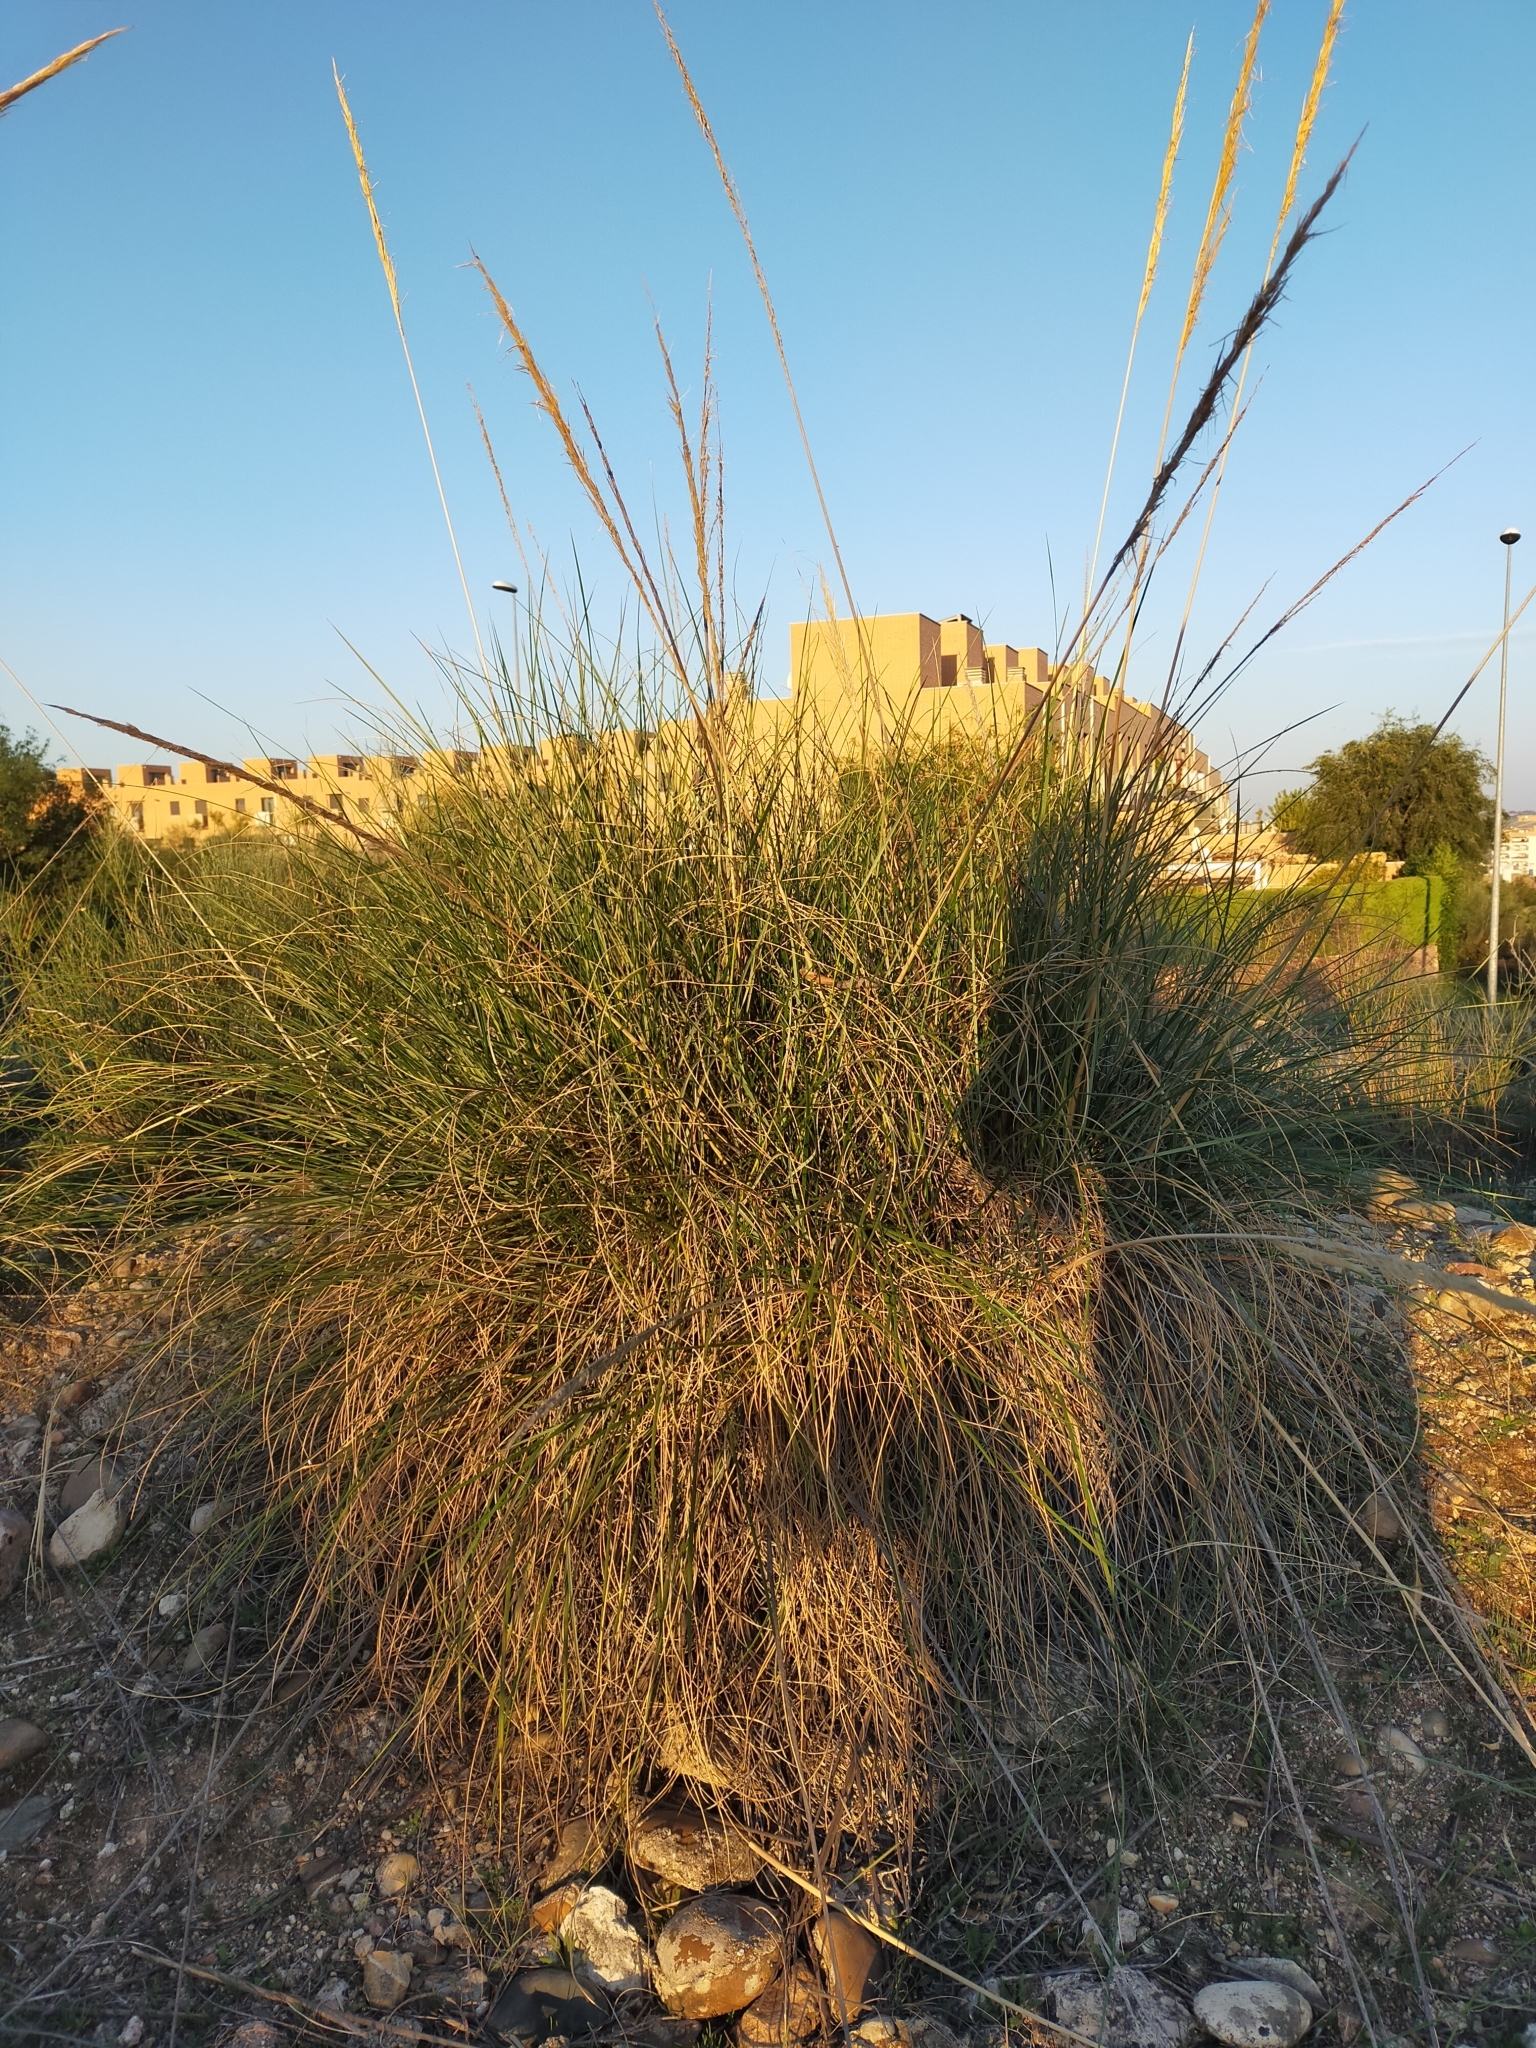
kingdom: Plantae
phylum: Tracheophyta
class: Liliopsida
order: Poales
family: Poaceae
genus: Macrochloa
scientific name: Macrochloa tenacissima
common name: Alfa grass
